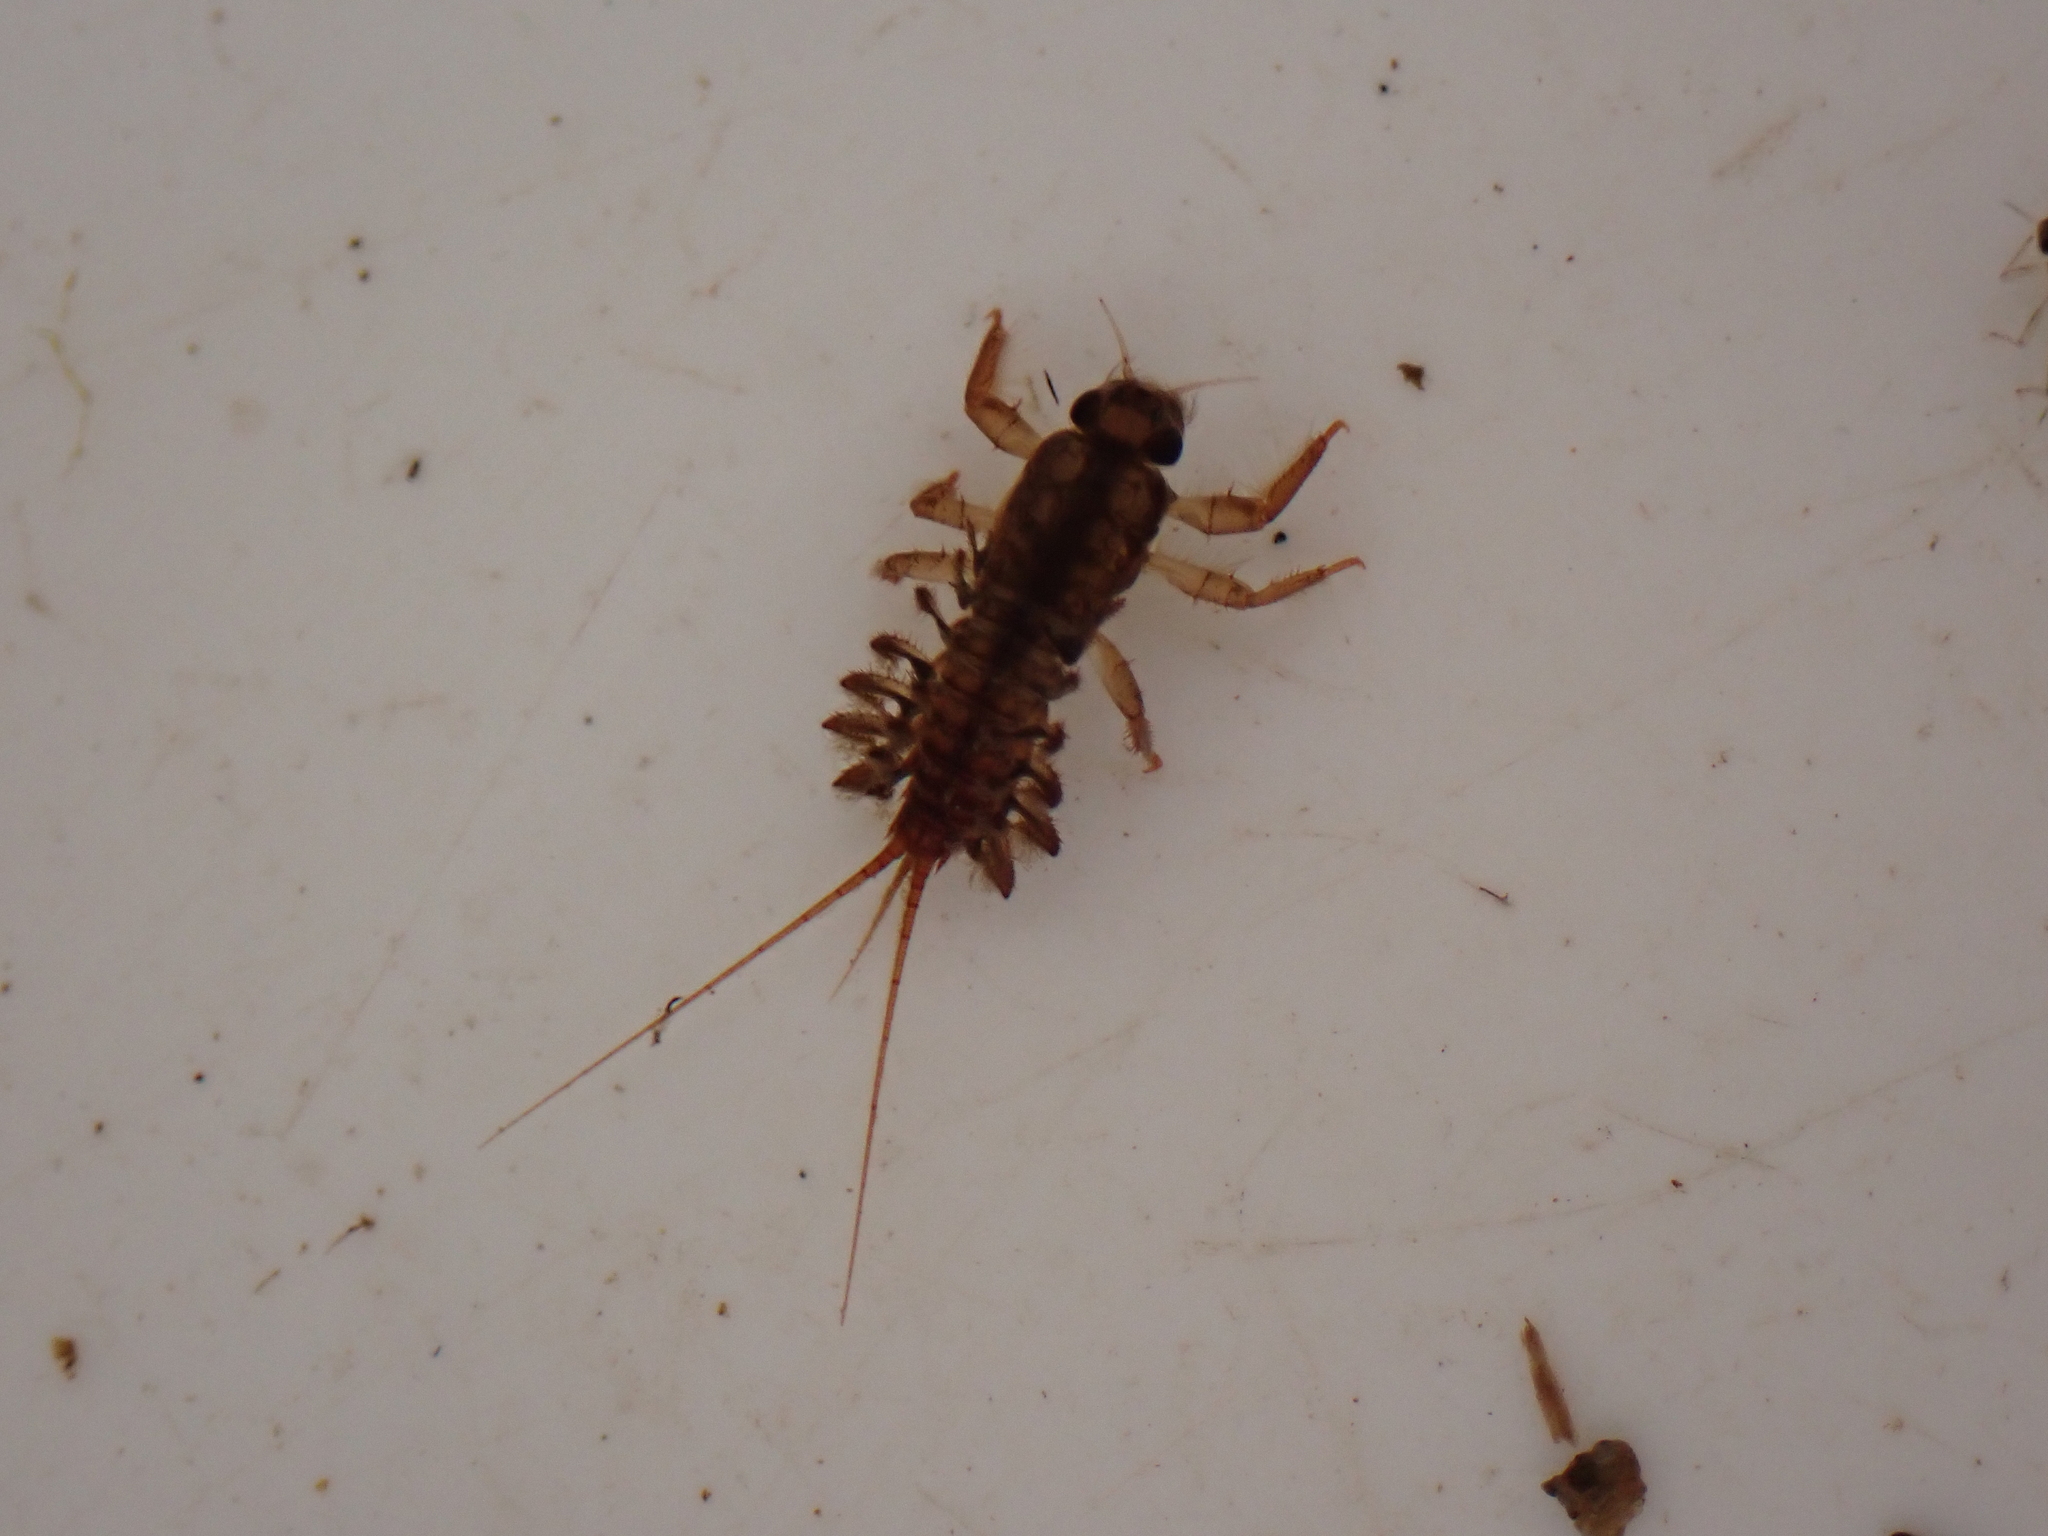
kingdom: Animalia
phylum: Arthropoda
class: Insecta
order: Ephemeroptera
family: Coloburiscidae
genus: Coloburiscus
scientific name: Coloburiscus humeralis
